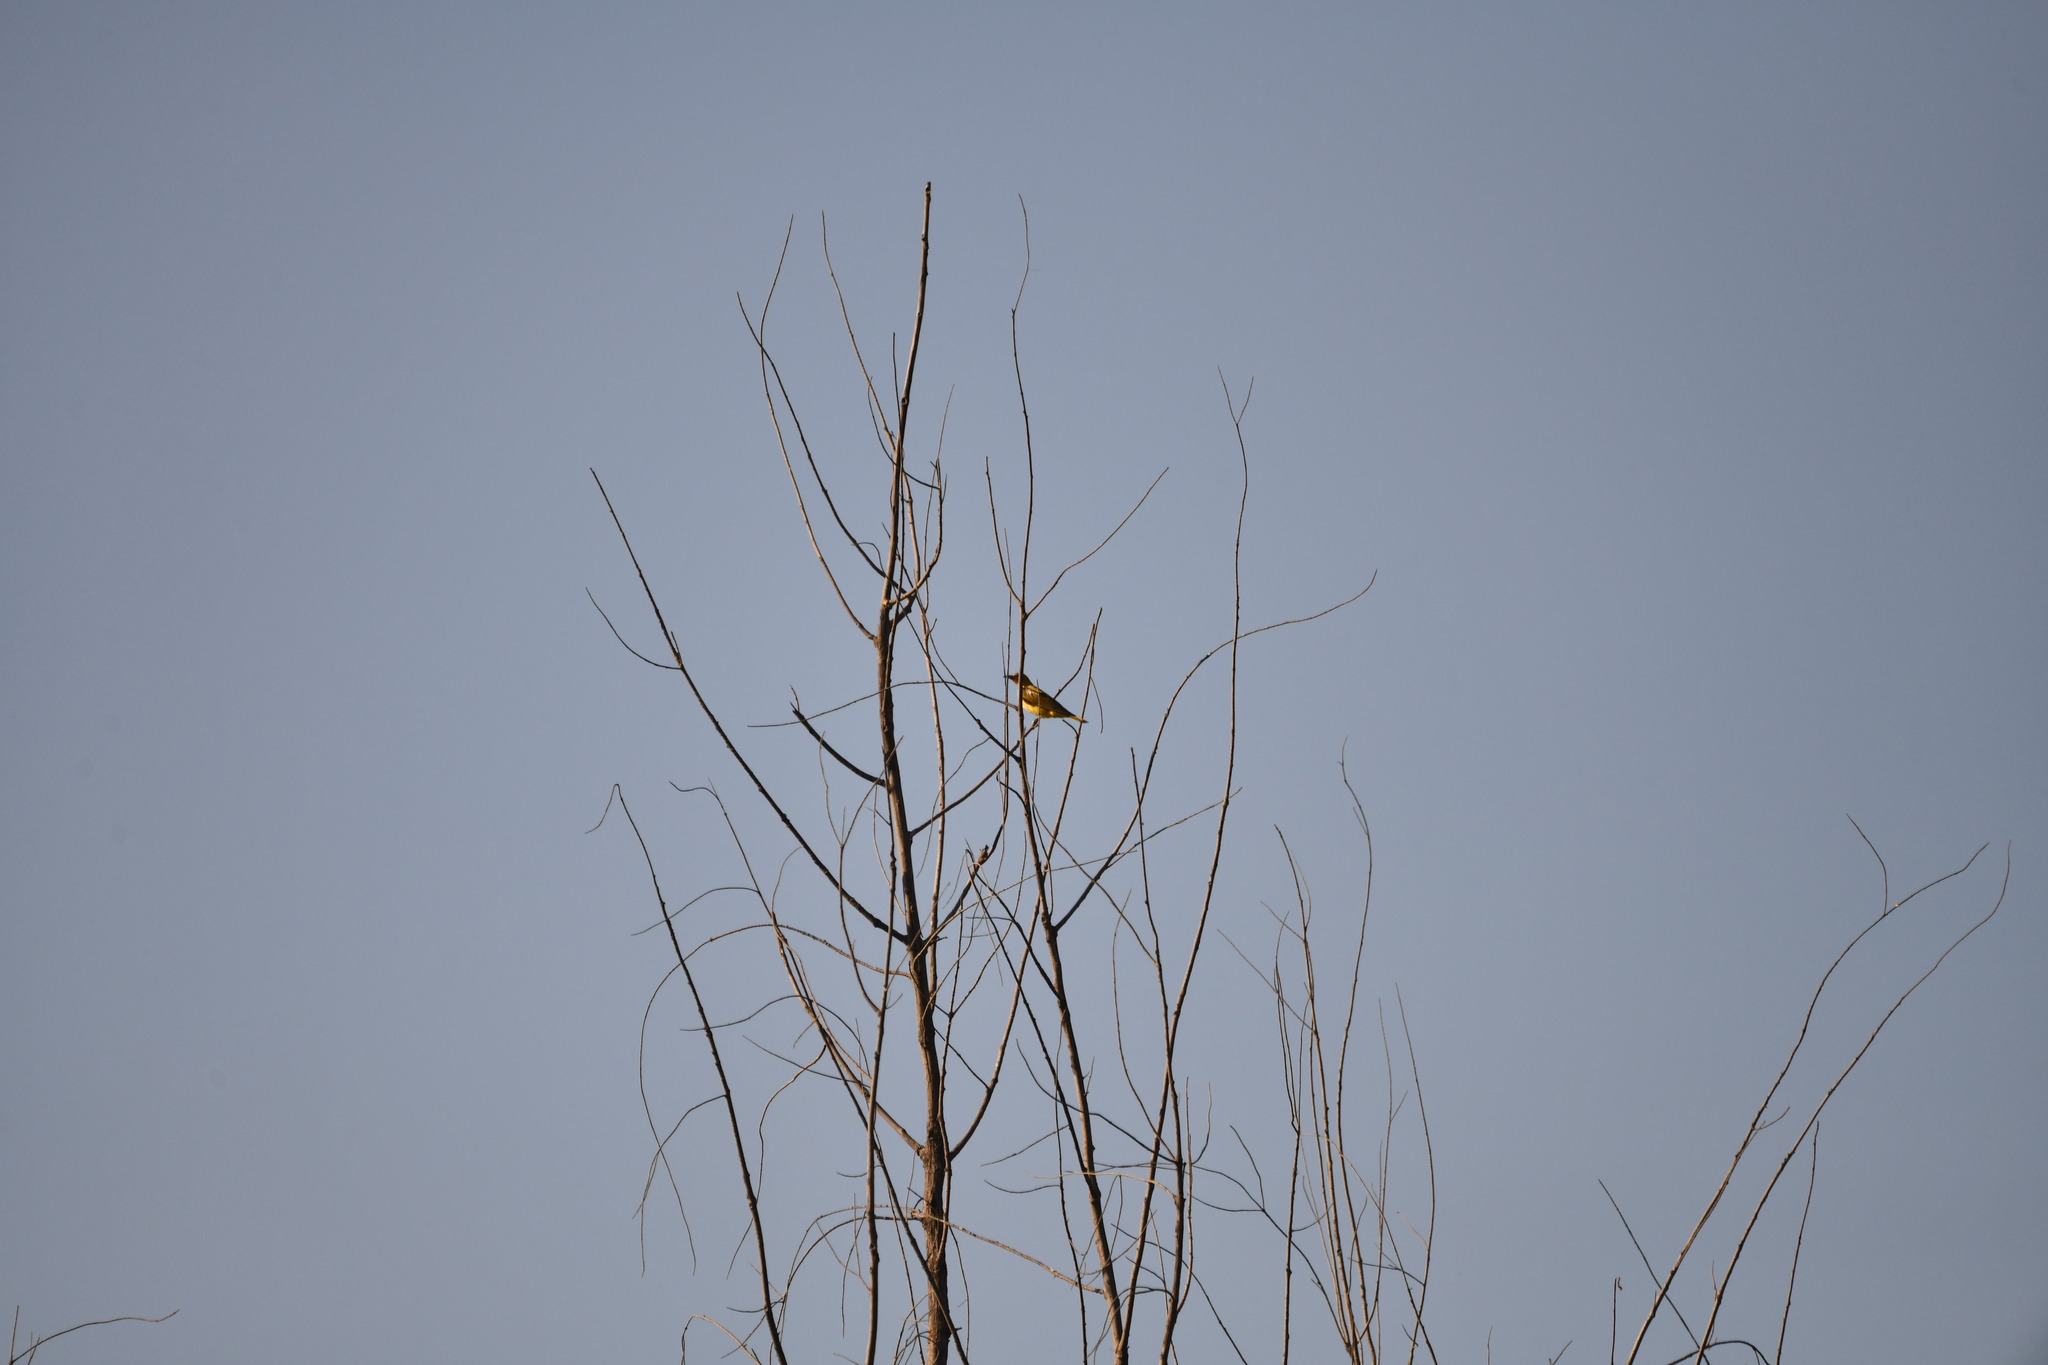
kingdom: Animalia
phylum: Chordata
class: Aves
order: Passeriformes
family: Oriolidae
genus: Oriolus
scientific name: Oriolus kundoo
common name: Indian golden oriole
